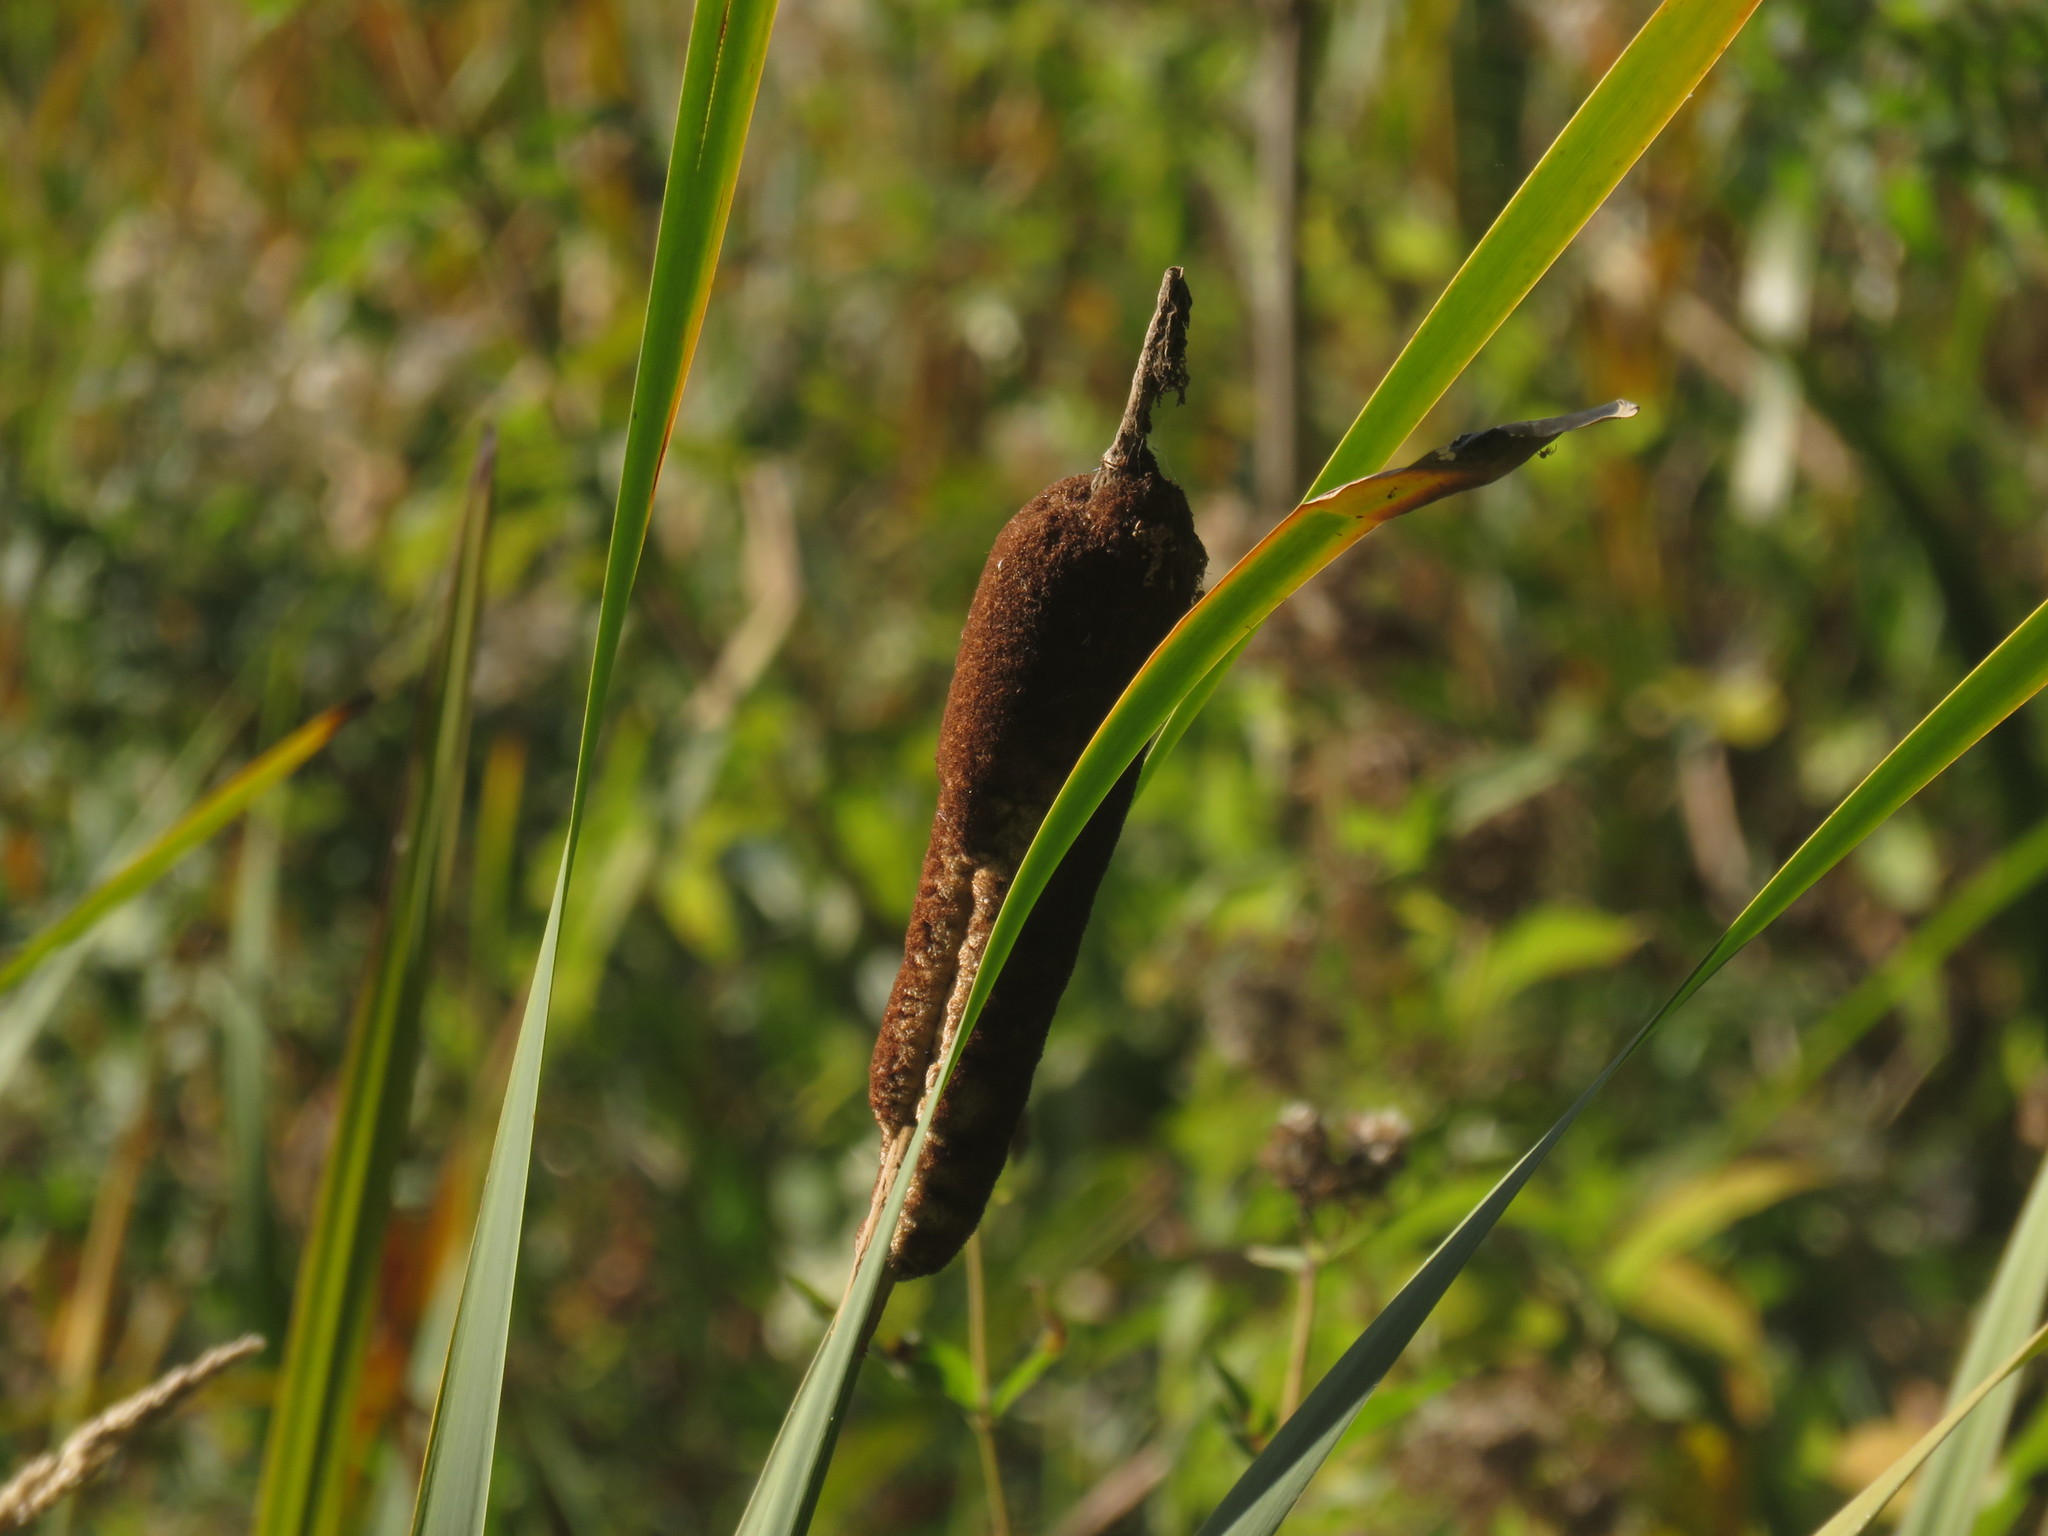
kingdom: Plantae
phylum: Tracheophyta
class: Liliopsida
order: Poales
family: Typhaceae
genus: Typha
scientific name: Typha latifolia
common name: Broadleaf cattail
